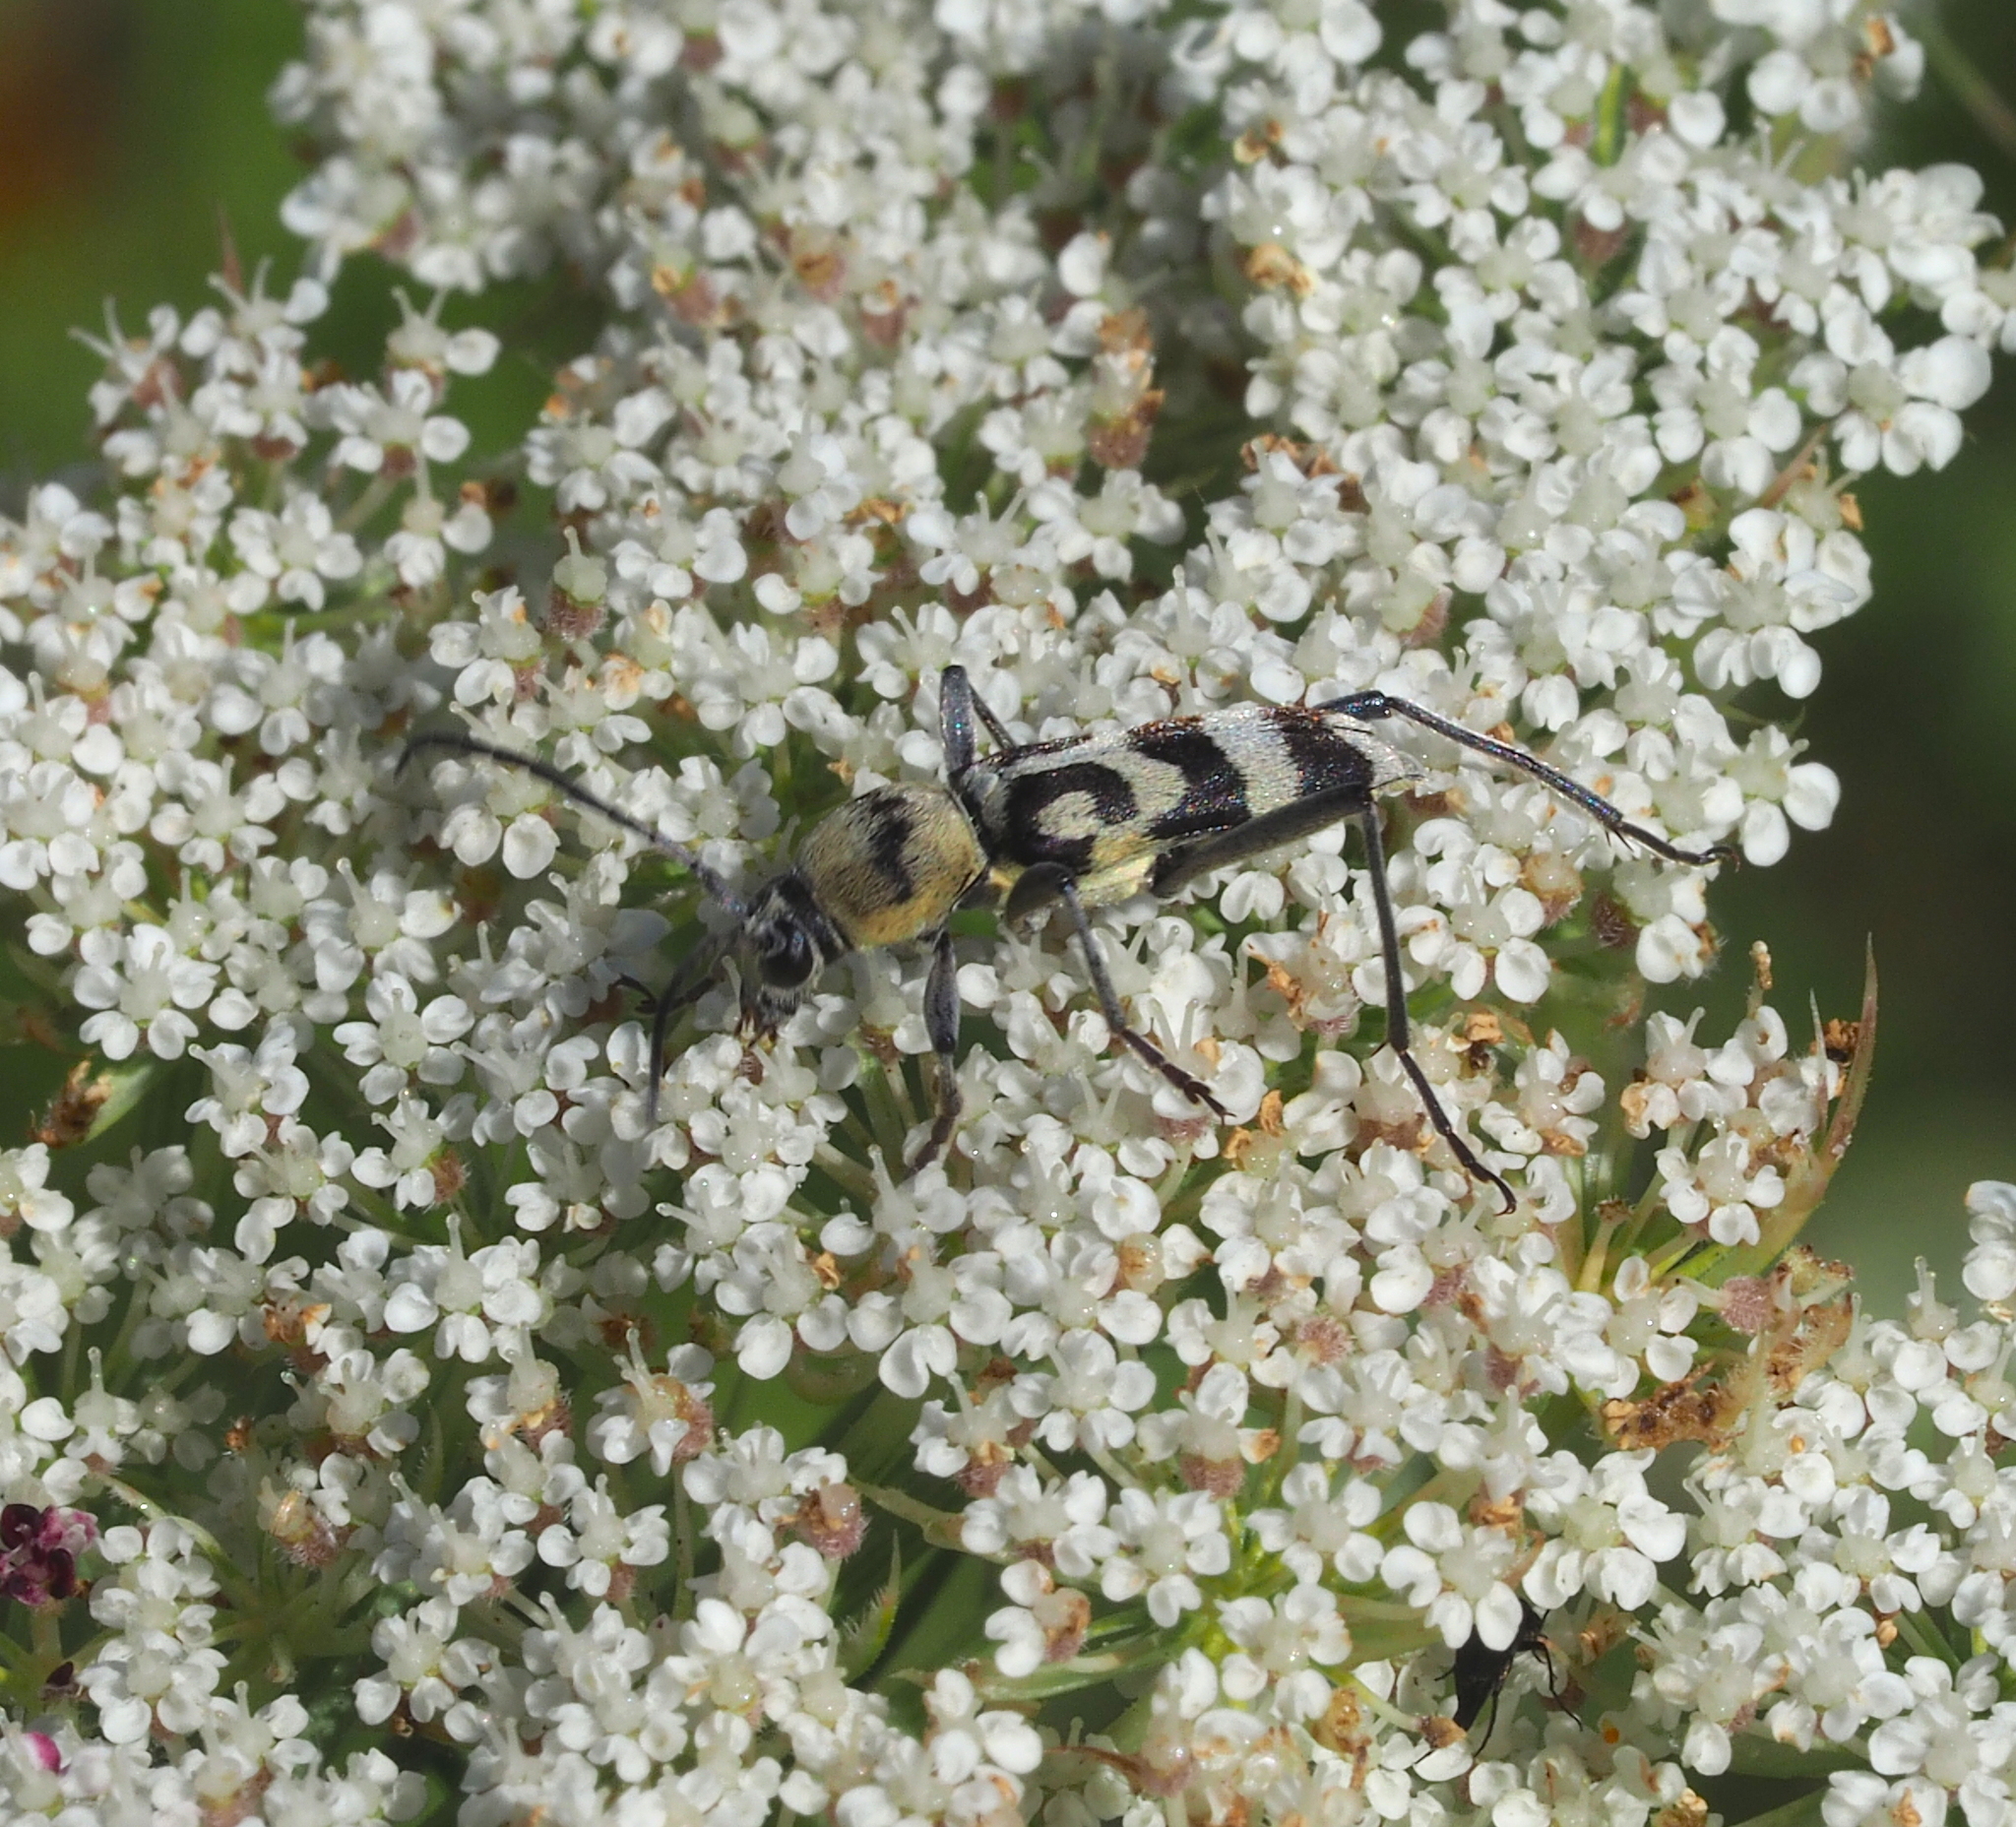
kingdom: Animalia
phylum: Arthropoda
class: Insecta
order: Coleoptera
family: Cerambycidae
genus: Chlorophorus
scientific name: Chlorophorus varius
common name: Grape wood borer
